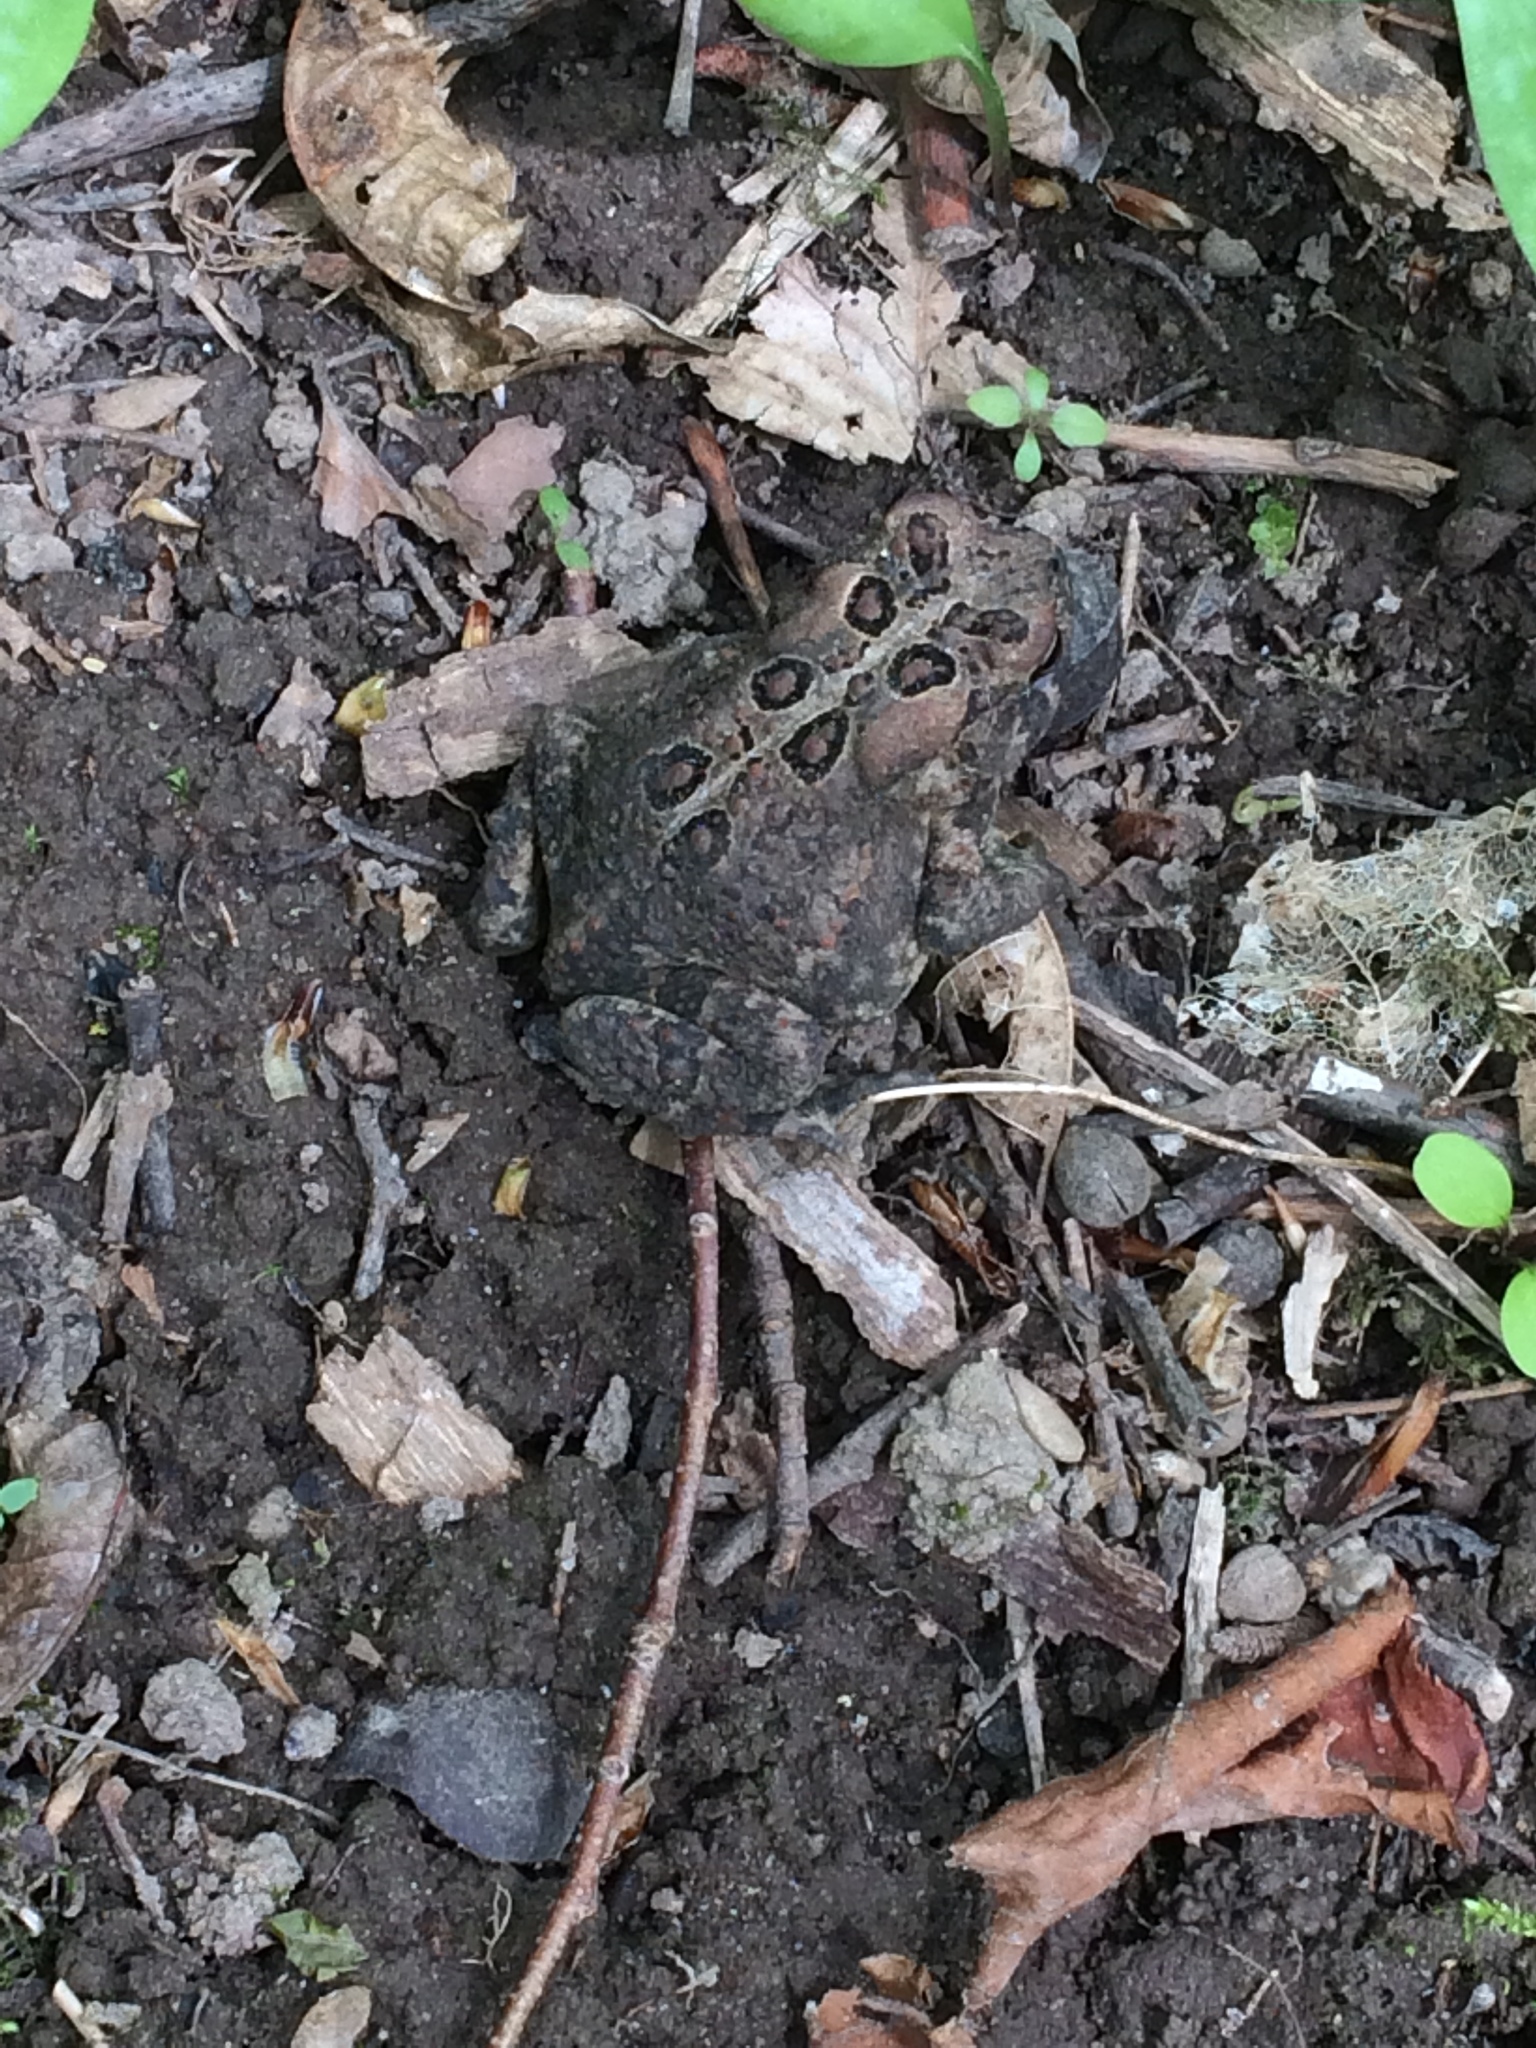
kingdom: Animalia
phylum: Chordata
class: Amphibia
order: Anura
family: Bufonidae
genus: Anaxyrus
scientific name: Anaxyrus americanus
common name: American toad
